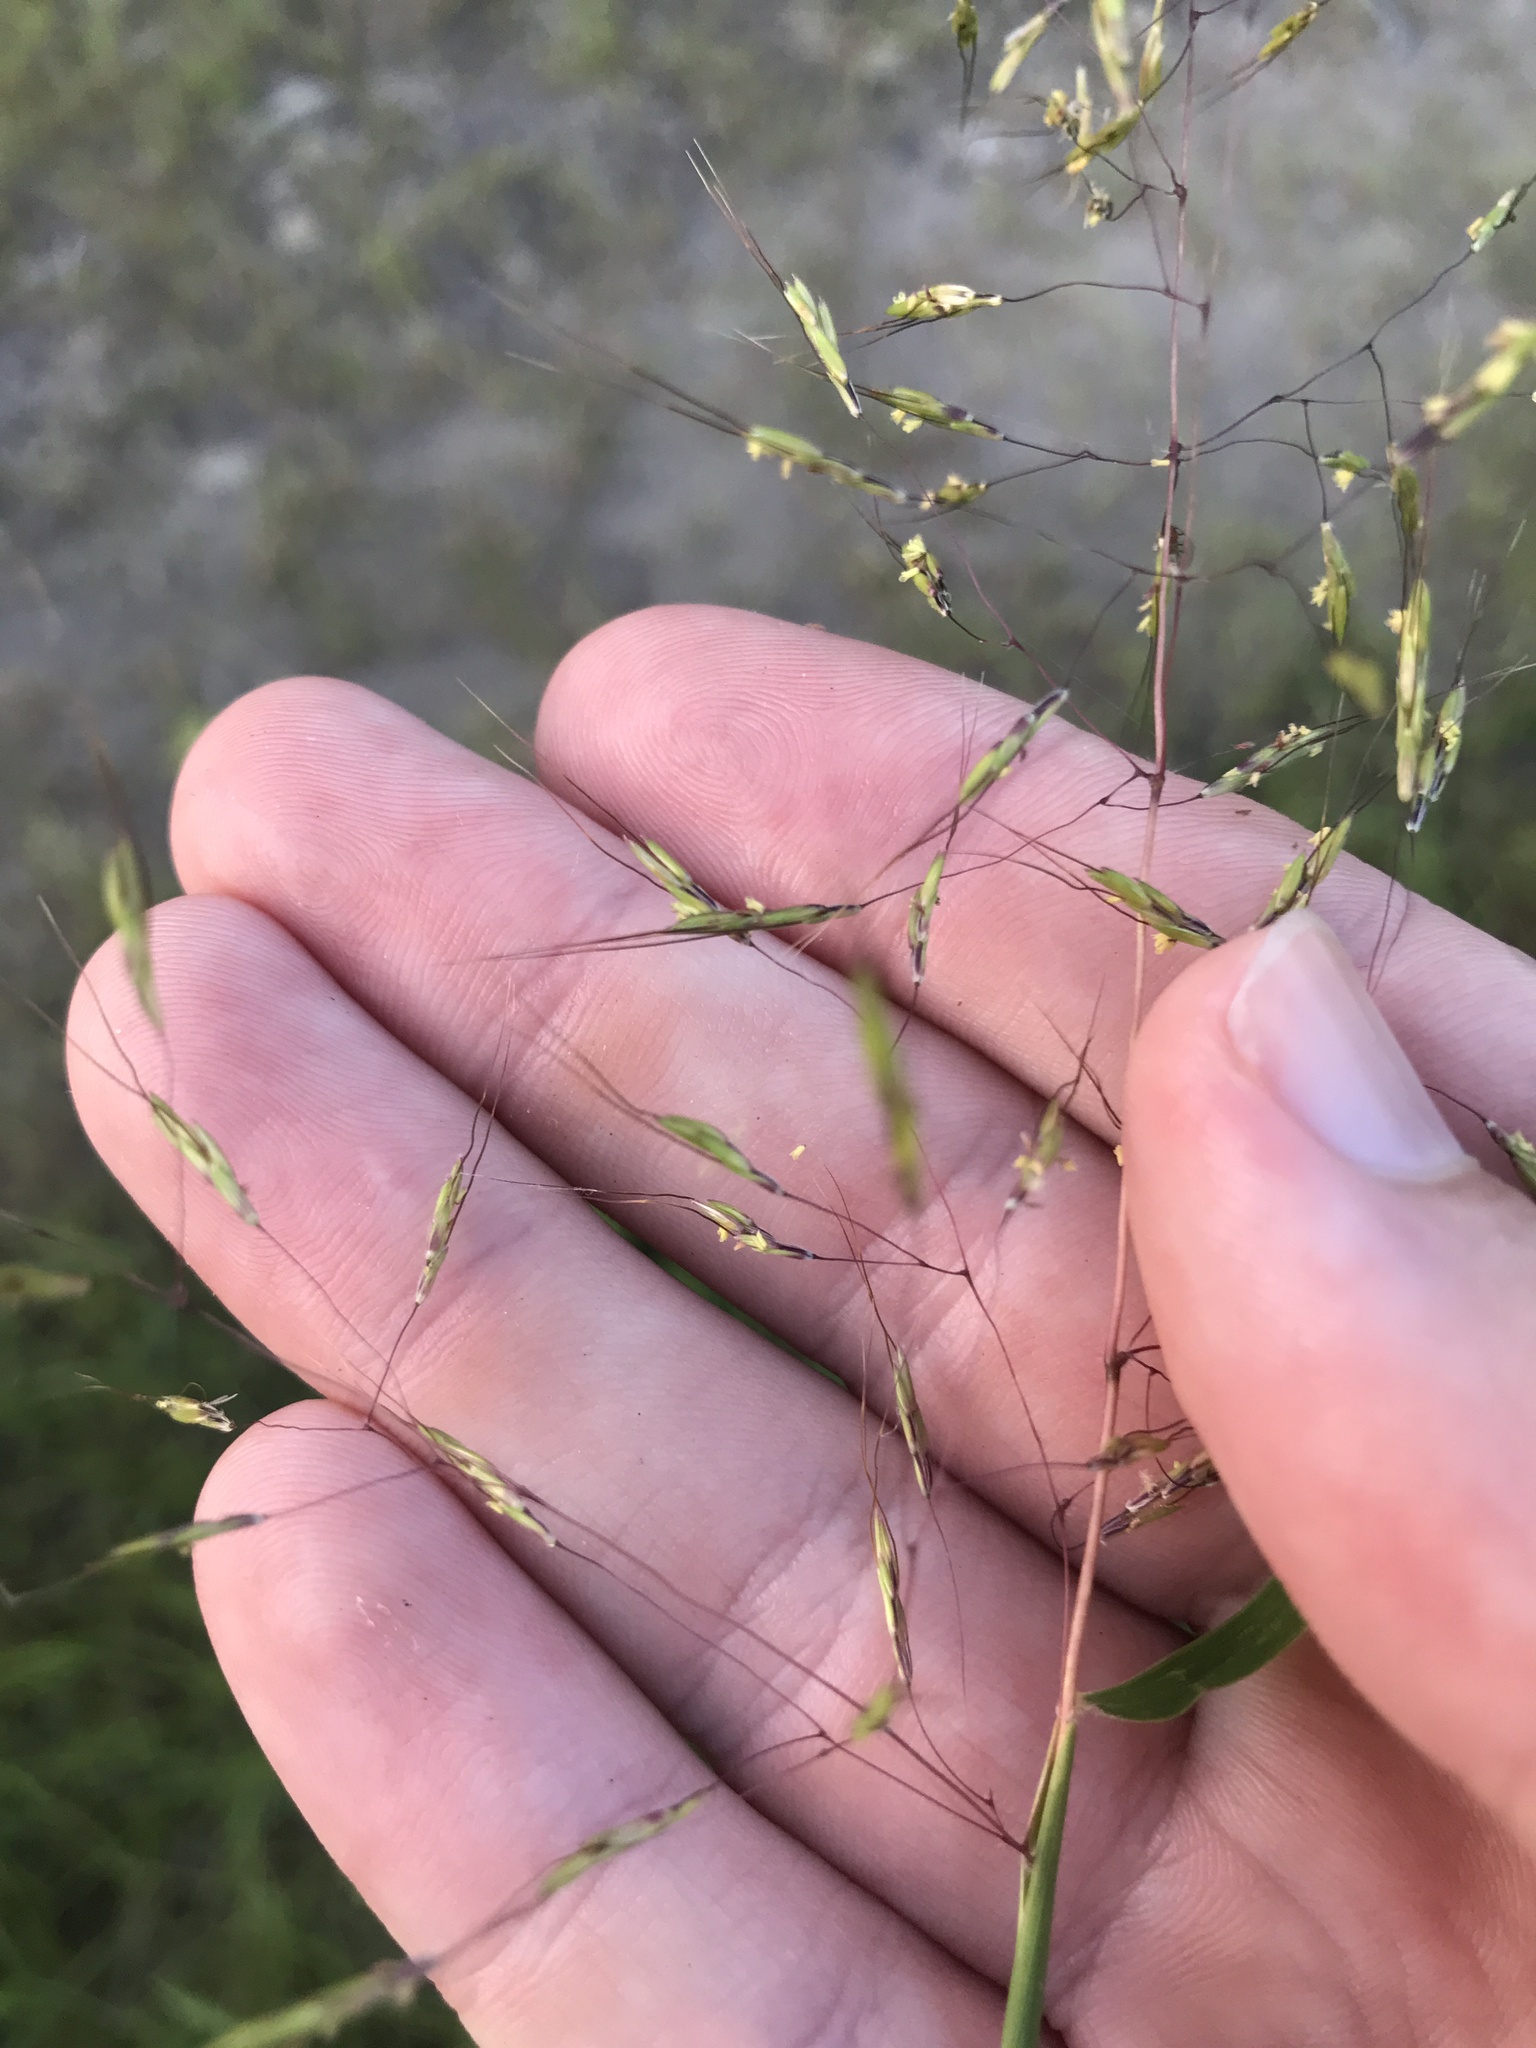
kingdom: Plantae
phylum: Tracheophyta
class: Liliopsida
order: Poales
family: Poaceae
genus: Capillipedium
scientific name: Capillipedium parviflorum
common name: Golden-beard
